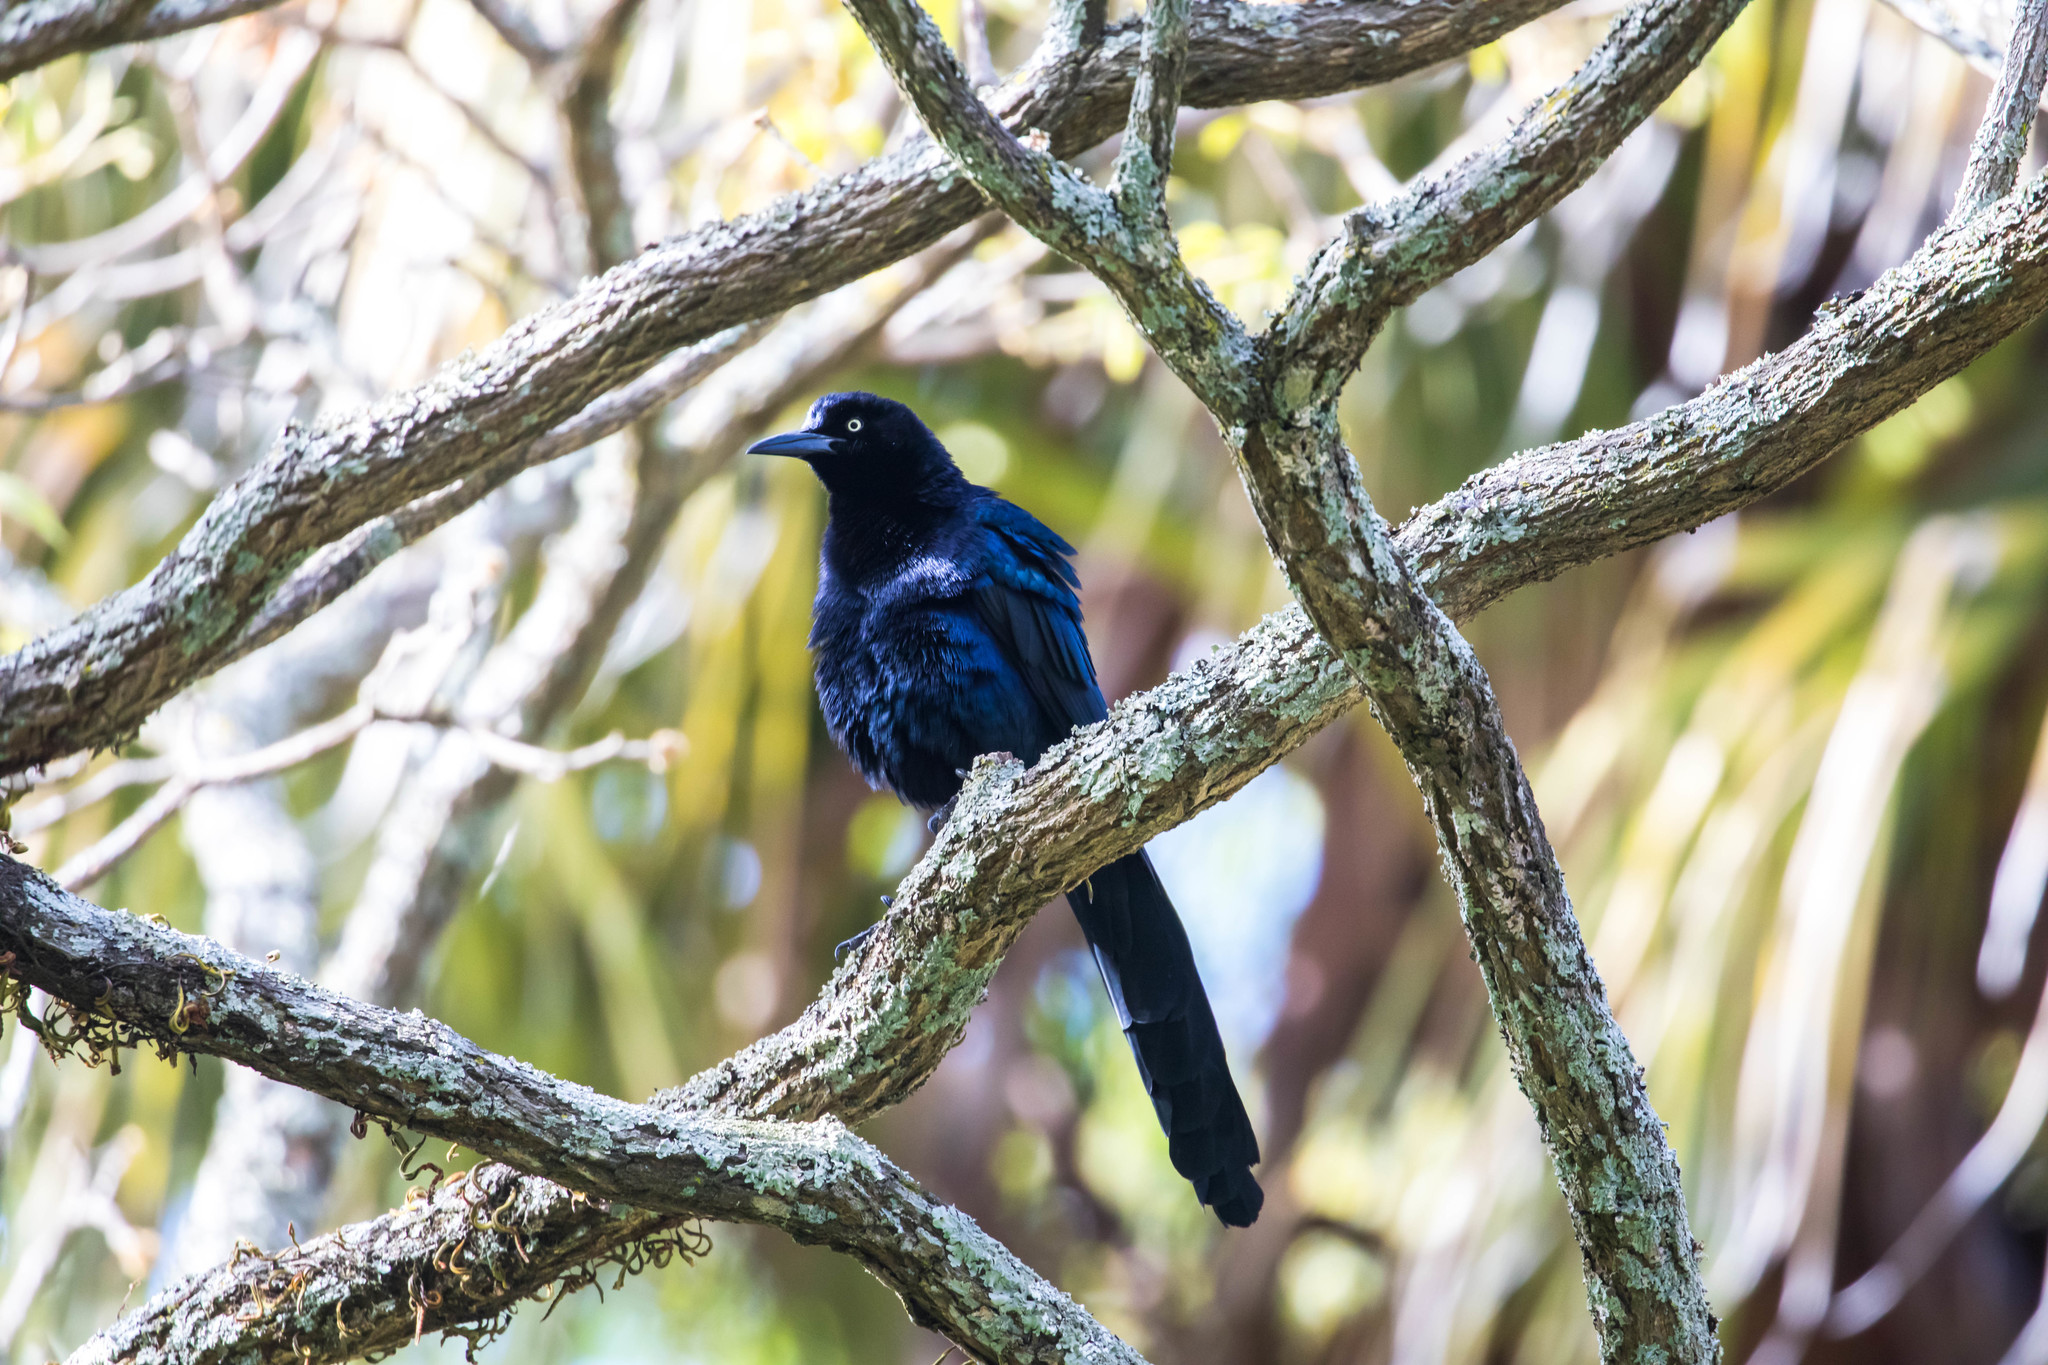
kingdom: Animalia
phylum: Chordata
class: Aves
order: Passeriformes
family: Icteridae
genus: Quiscalus
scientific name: Quiscalus mexicanus
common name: Great-tailed grackle
